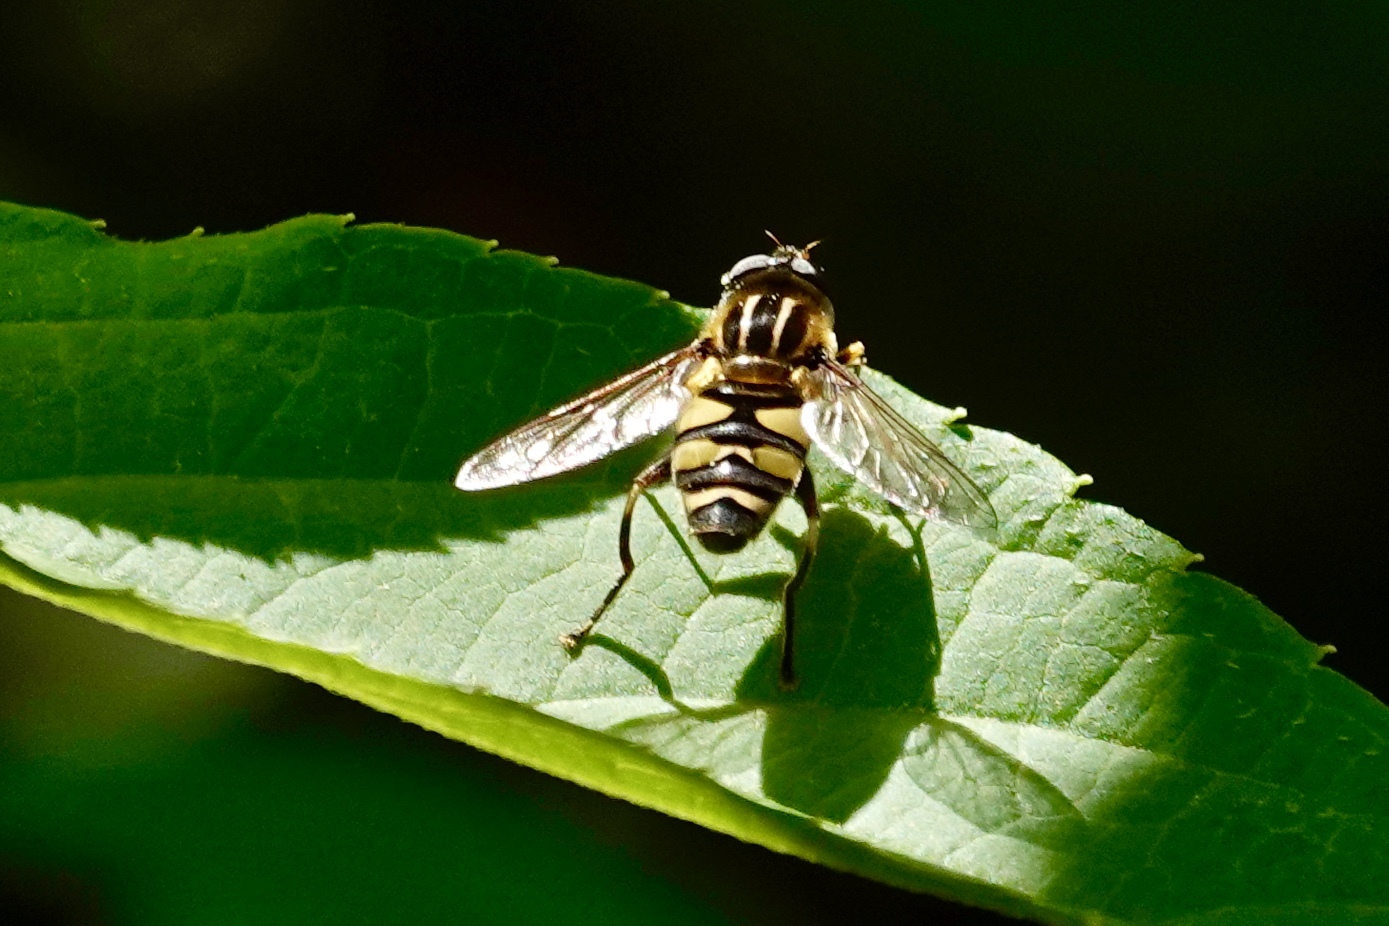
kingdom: Animalia
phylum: Arthropoda
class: Insecta
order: Diptera
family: Syrphidae
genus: Helophilus
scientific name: Helophilus fasciatus
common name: Narrow-headed marsh fly
